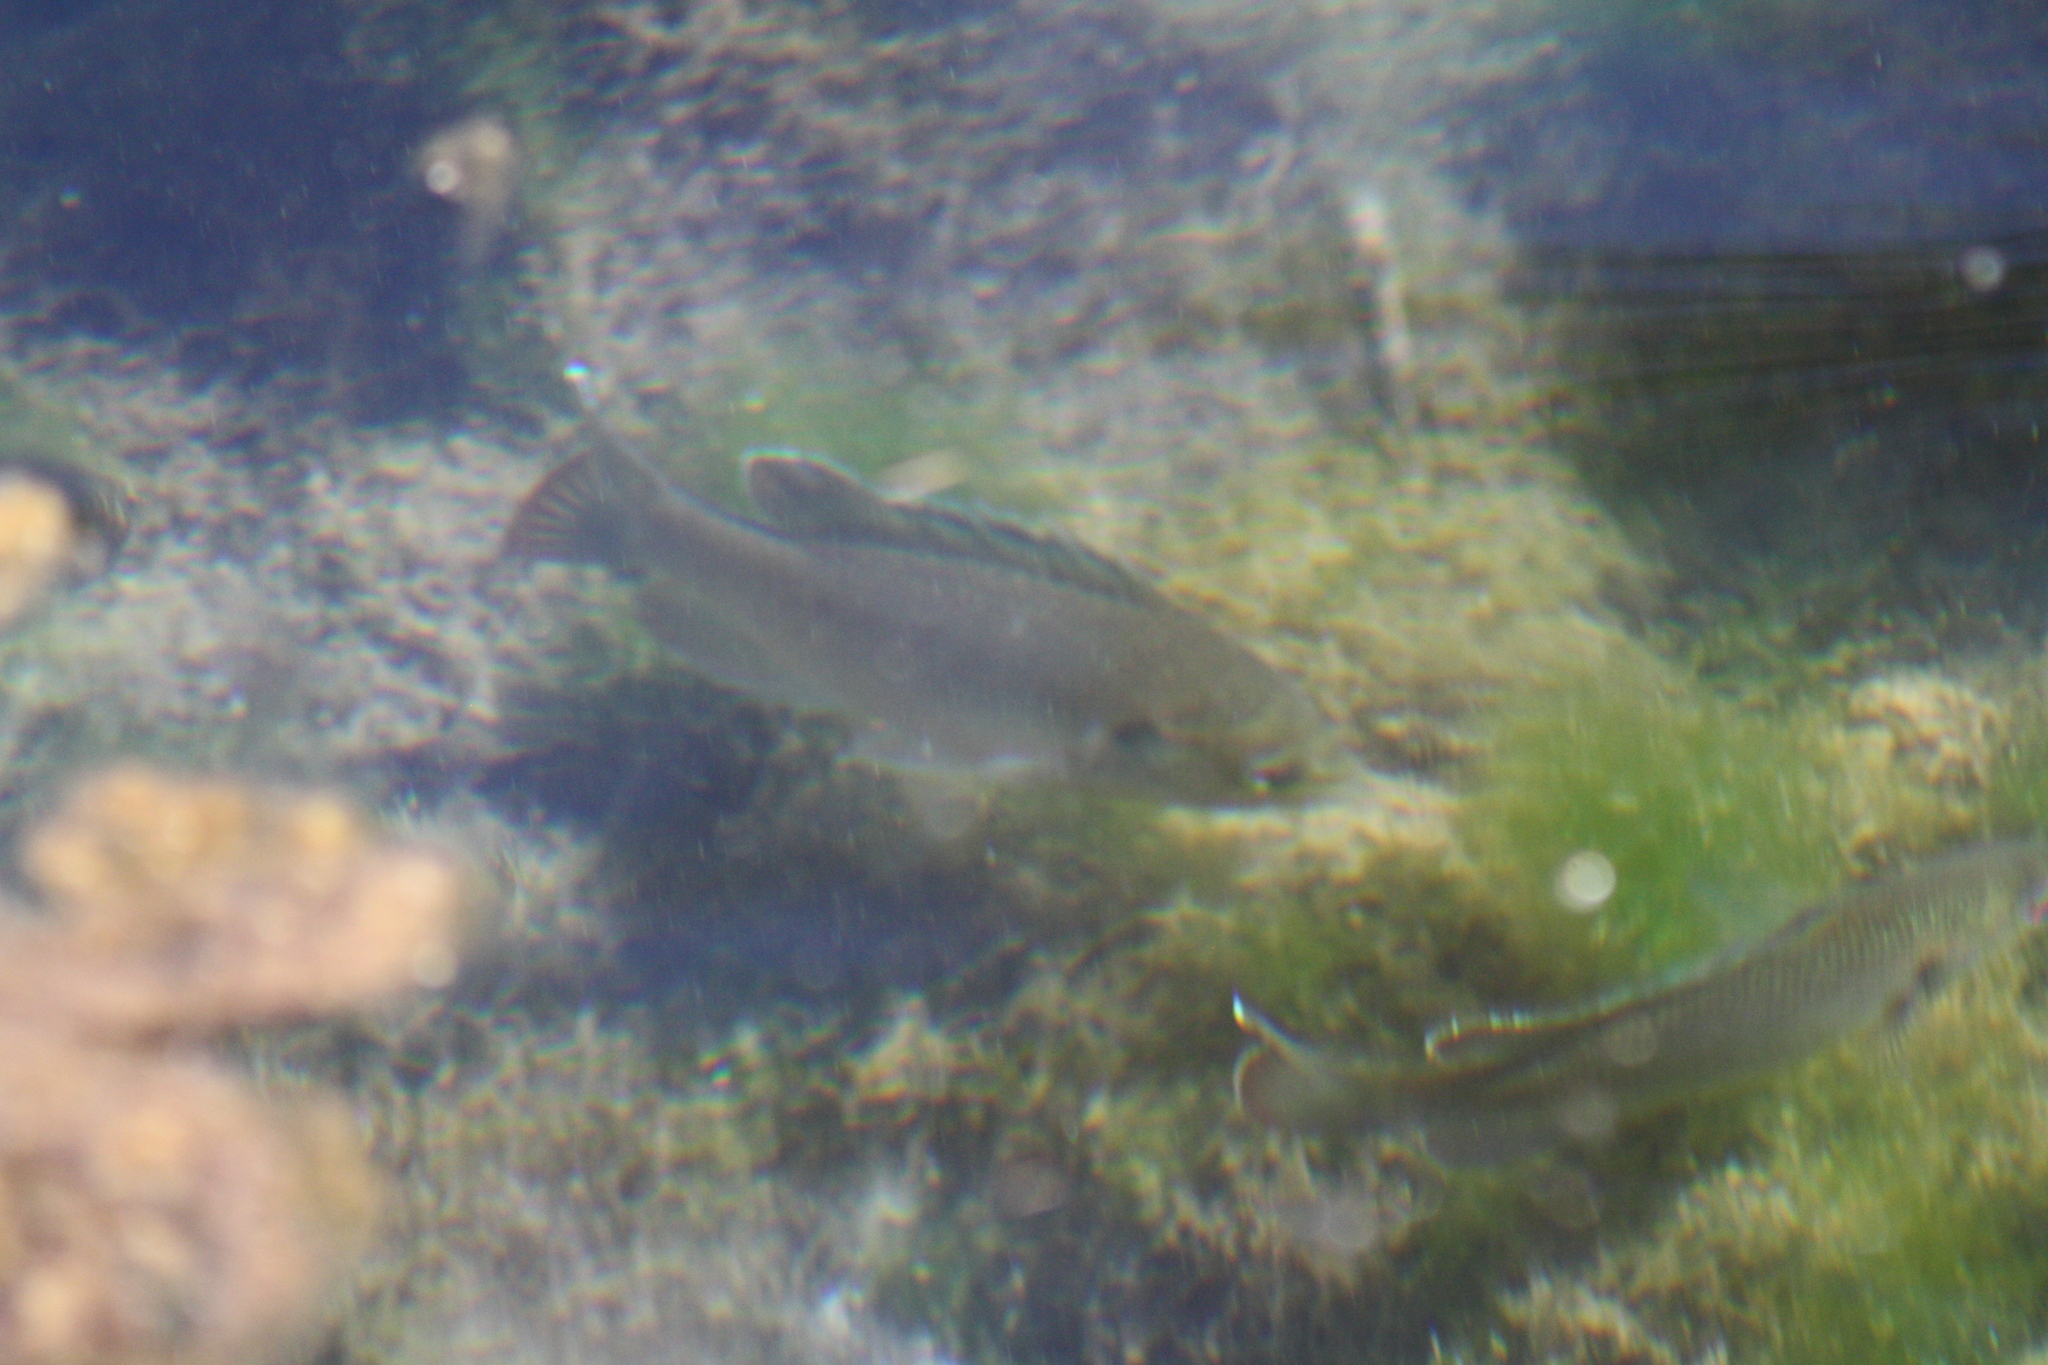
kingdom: Animalia
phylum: Chordata
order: Perciformes
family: Centrarchidae
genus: Lepomis
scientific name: Lepomis miniatus
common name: Redspotted sunfish
